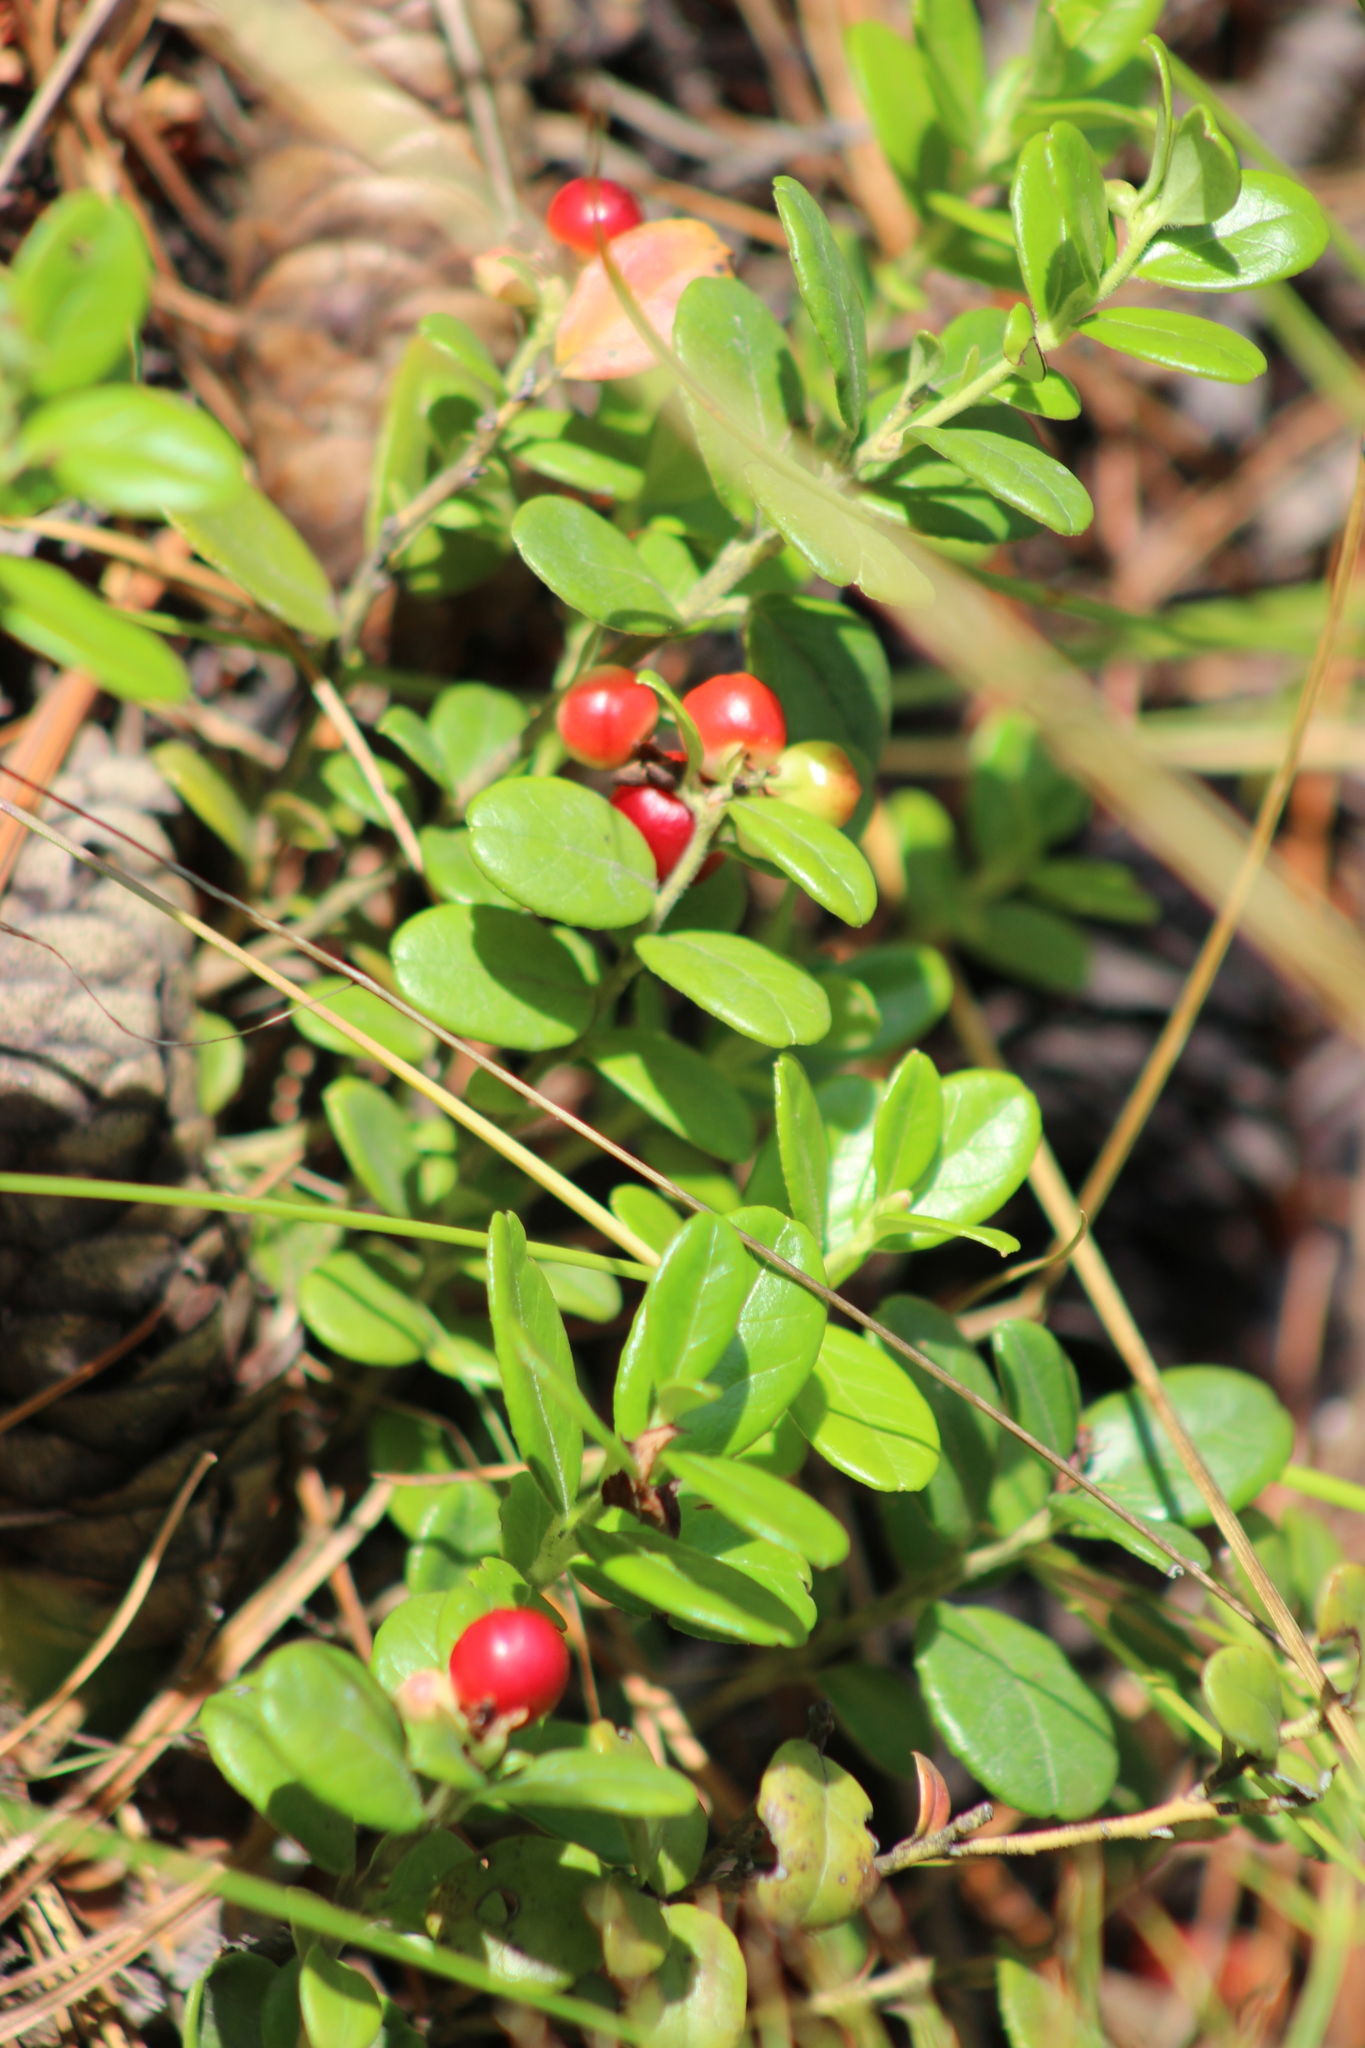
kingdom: Plantae
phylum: Tracheophyta
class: Magnoliopsida
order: Ericales
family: Ericaceae
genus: Vaccinium
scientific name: Vaccinium vitis-idaea
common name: Cowberry
